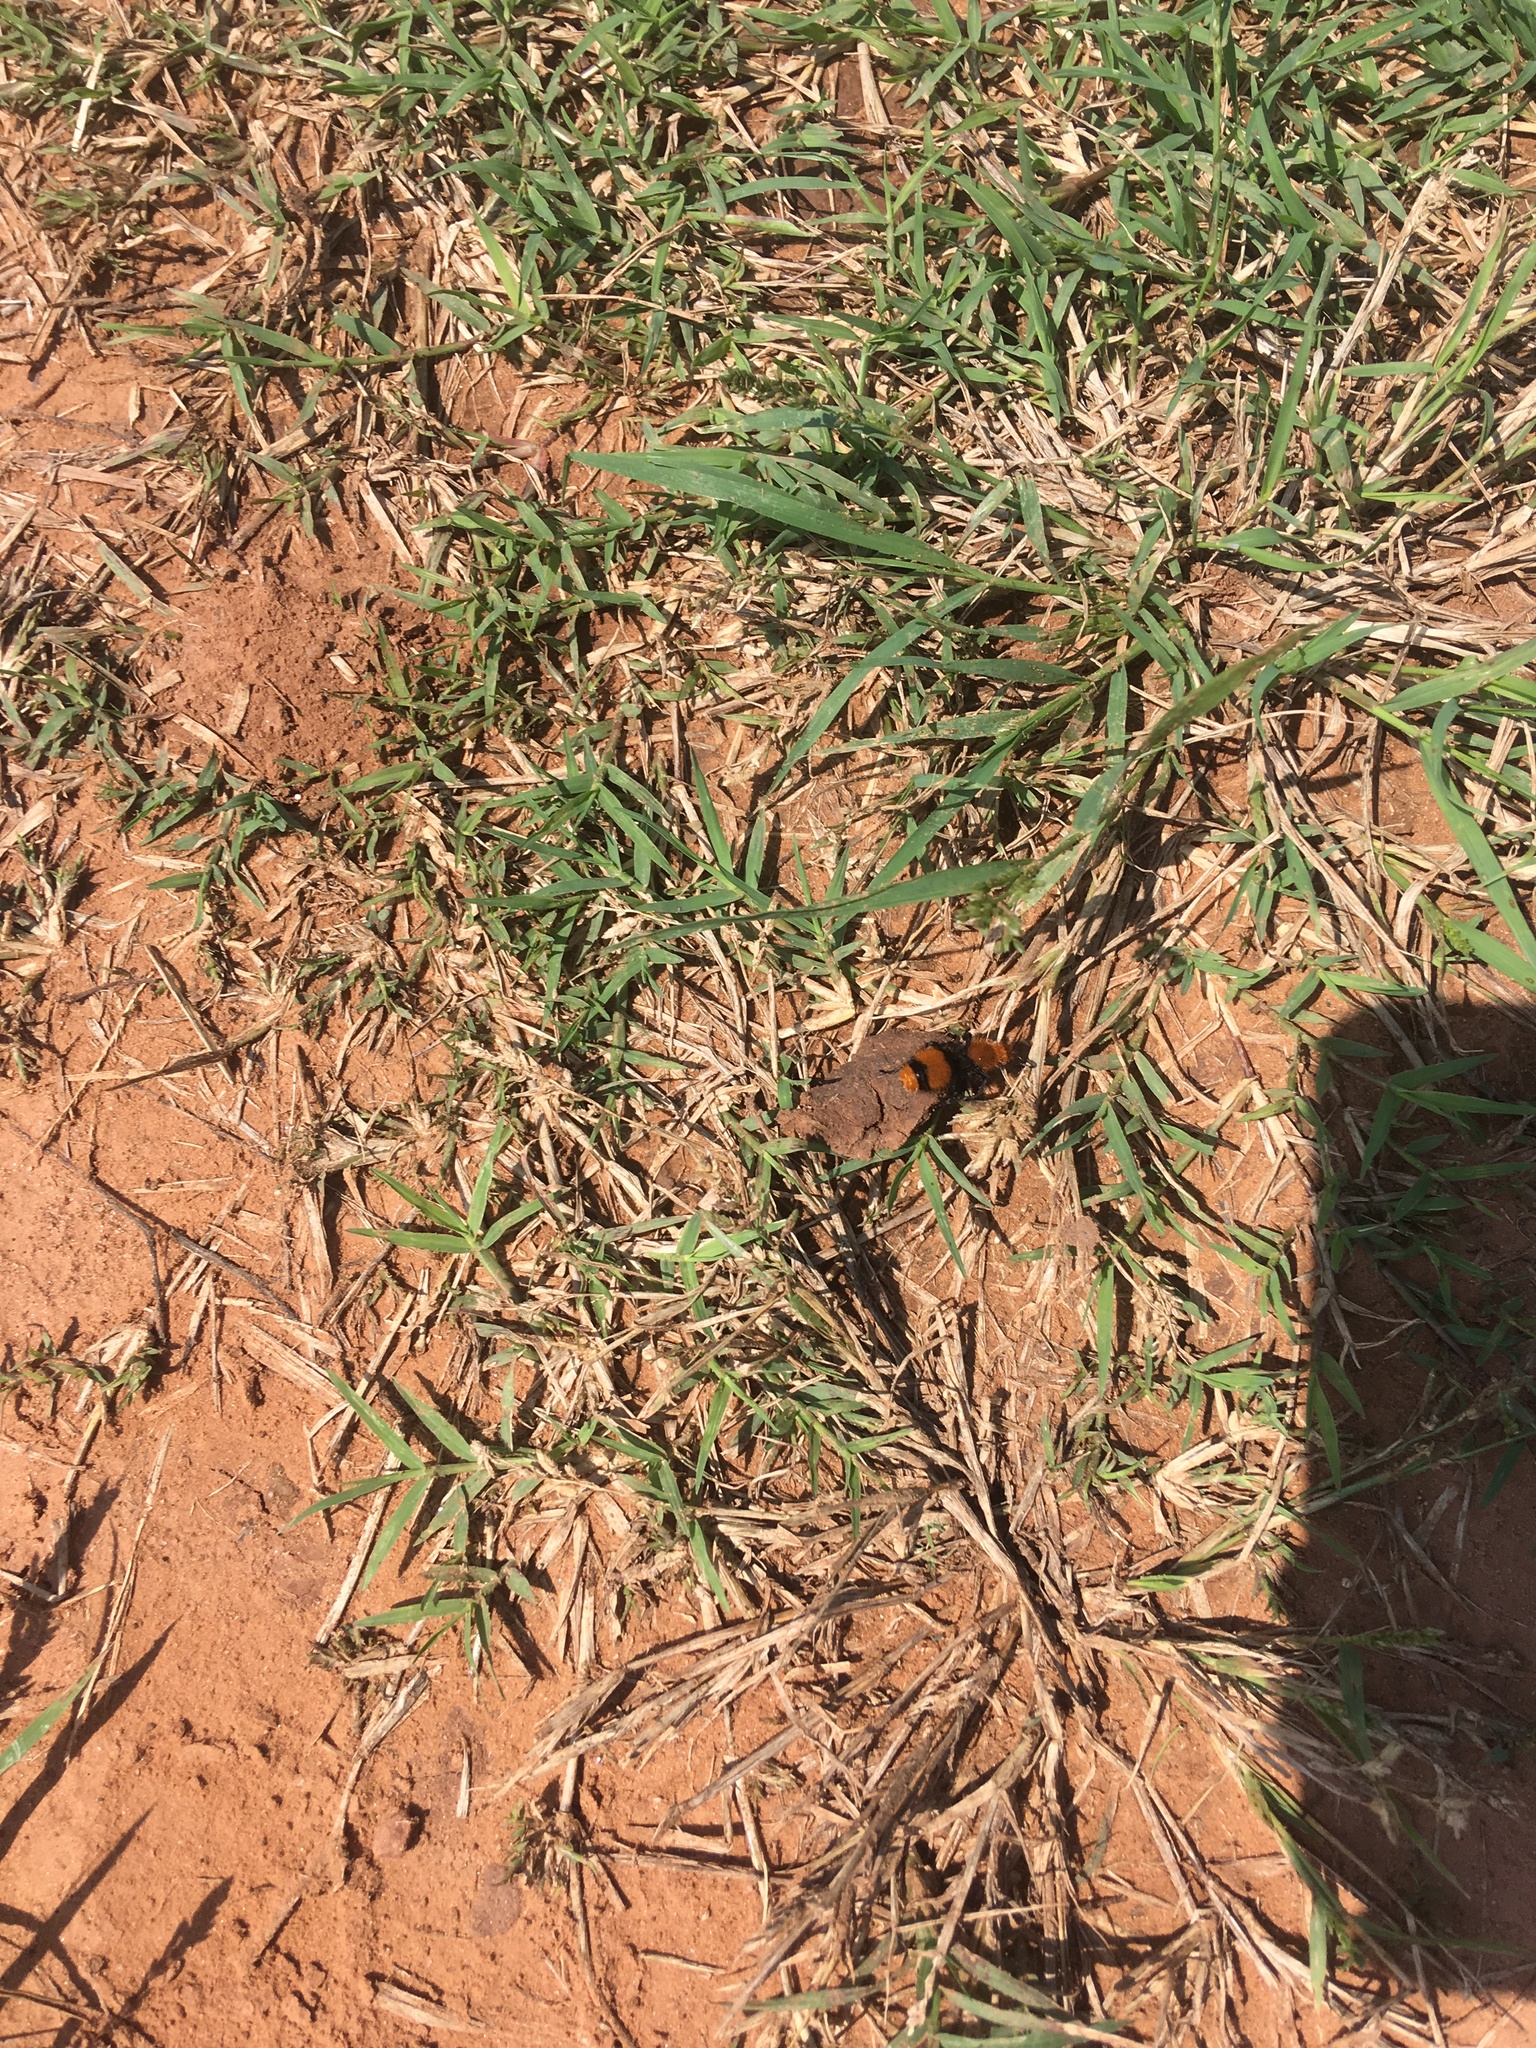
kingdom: Animalia
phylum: Arthropoda
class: Insecta
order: Hymenoptera
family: Mutillidae
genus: Dasymutilla
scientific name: Dasymutilla occidentalis
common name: Common eastern velvet ant
